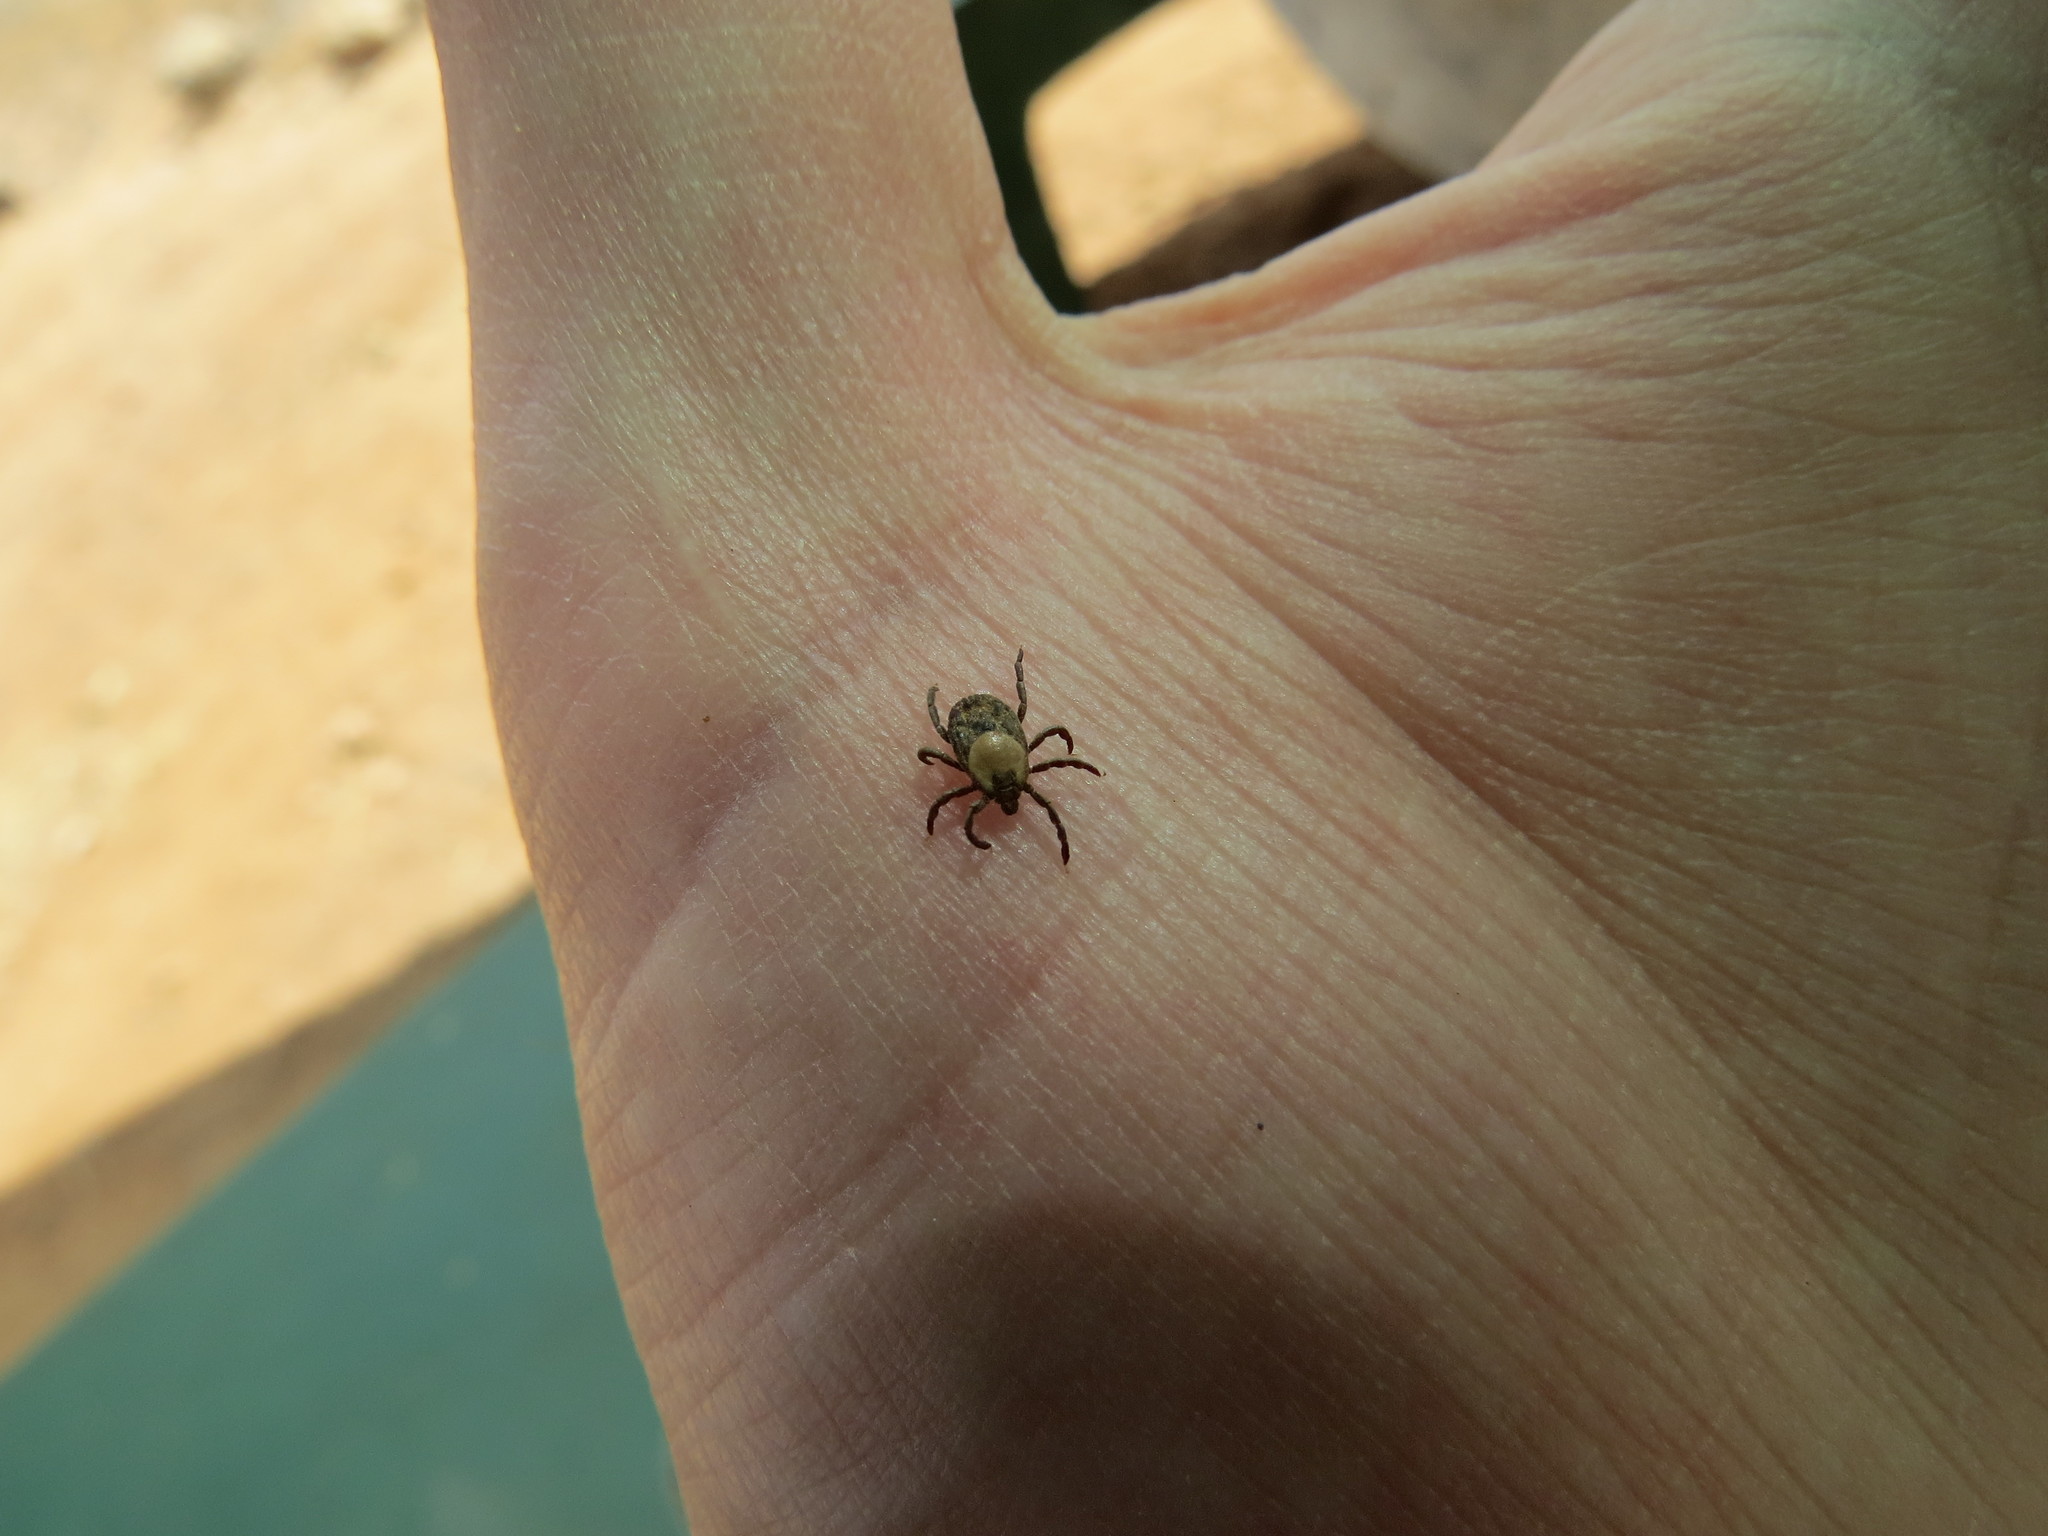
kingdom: Animalia
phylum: Arthropoda
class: Arachnida
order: Ixodida
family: Ixodidae
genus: Rhipicephalus
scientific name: Rhipicephalus pulchellus
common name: Yellow backed tick
